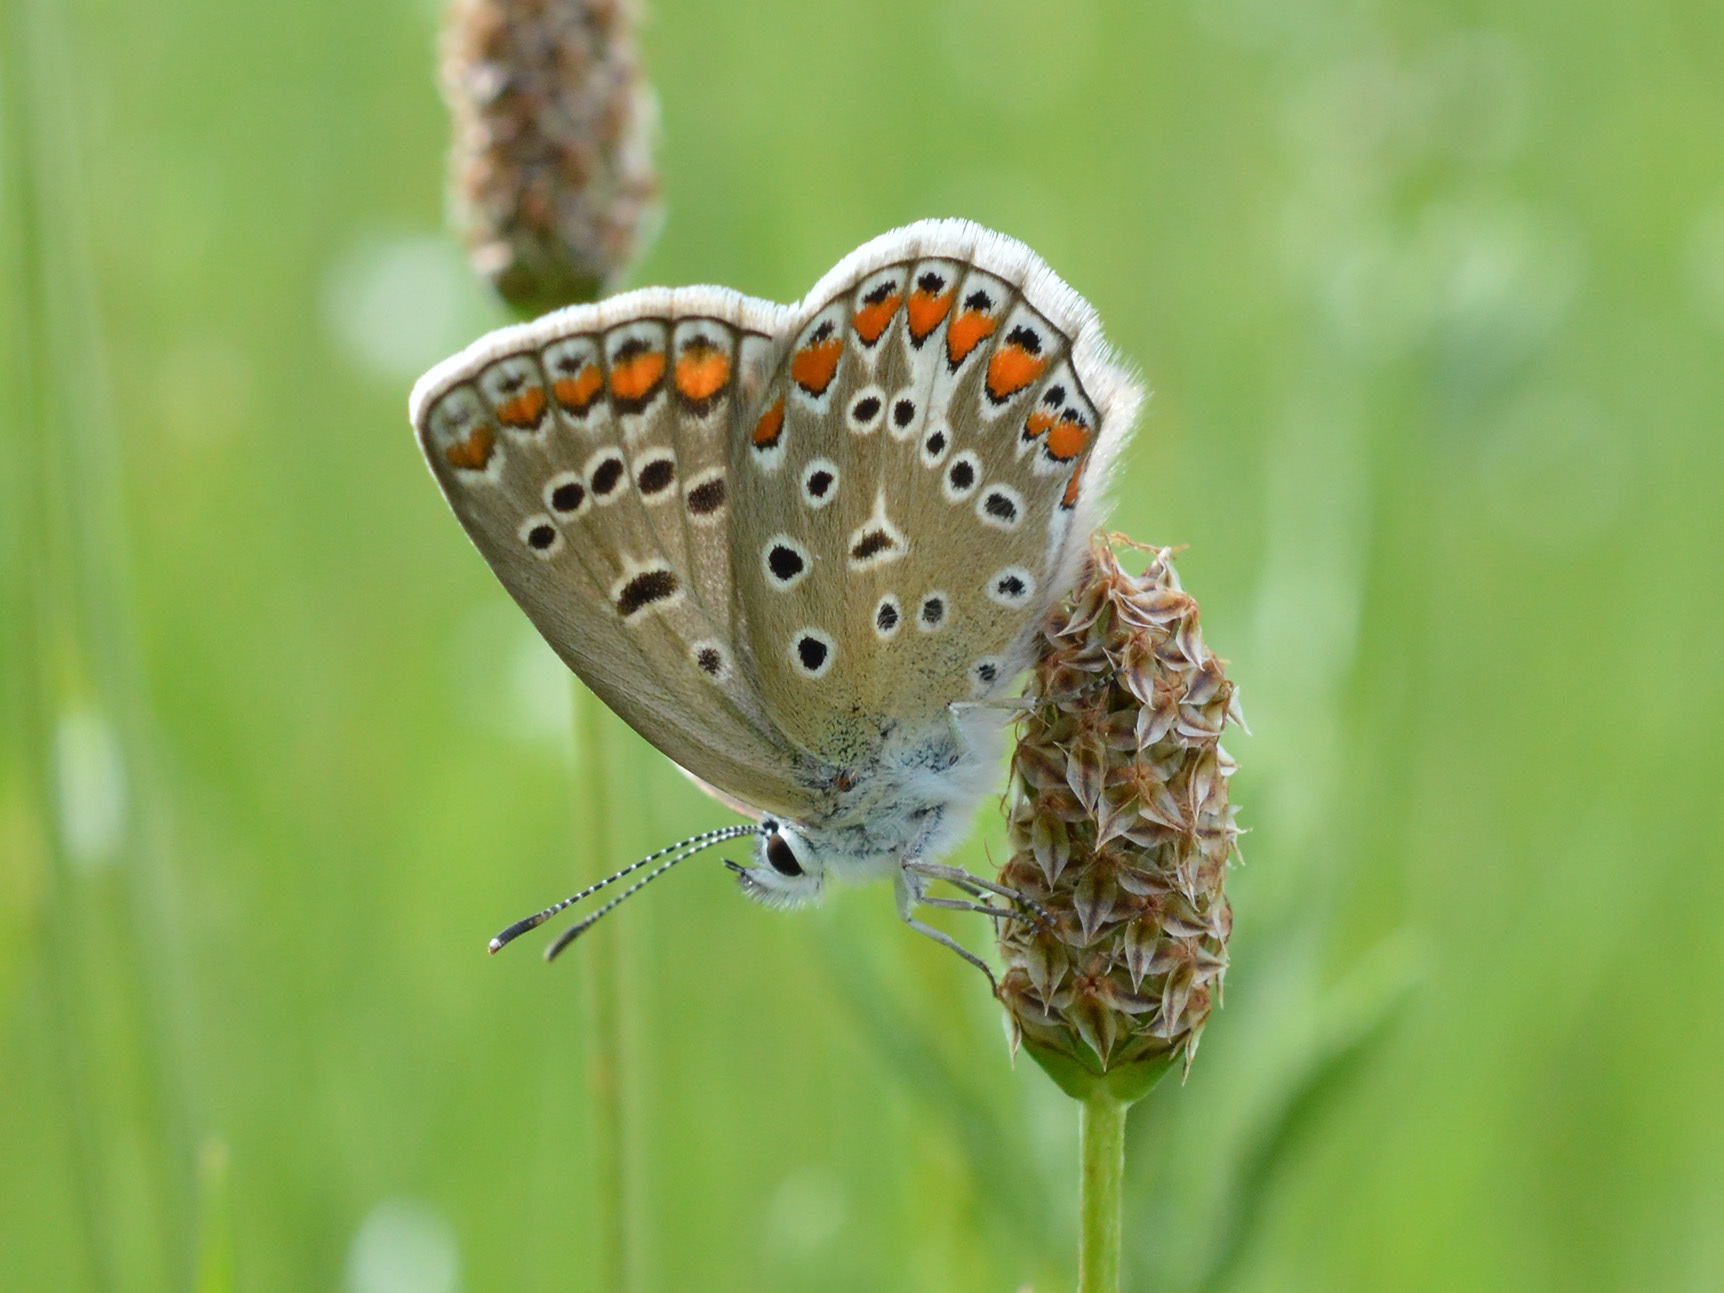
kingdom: Animalia
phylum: Arthropoda
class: Insecta
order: Lepidoptera
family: Lycaenidae
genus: Polyommatus
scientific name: Polyommatus icarus
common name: Common blue
